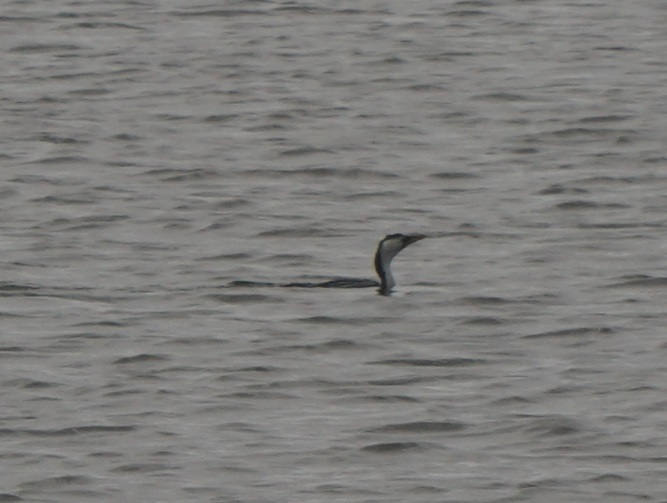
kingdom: Animalia
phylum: Chordata
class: Aves
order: Suliformes
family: Phalacrocoracidae
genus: Microcarbo
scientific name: Microcarbo melanoleucos
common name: Little pied cormorant
